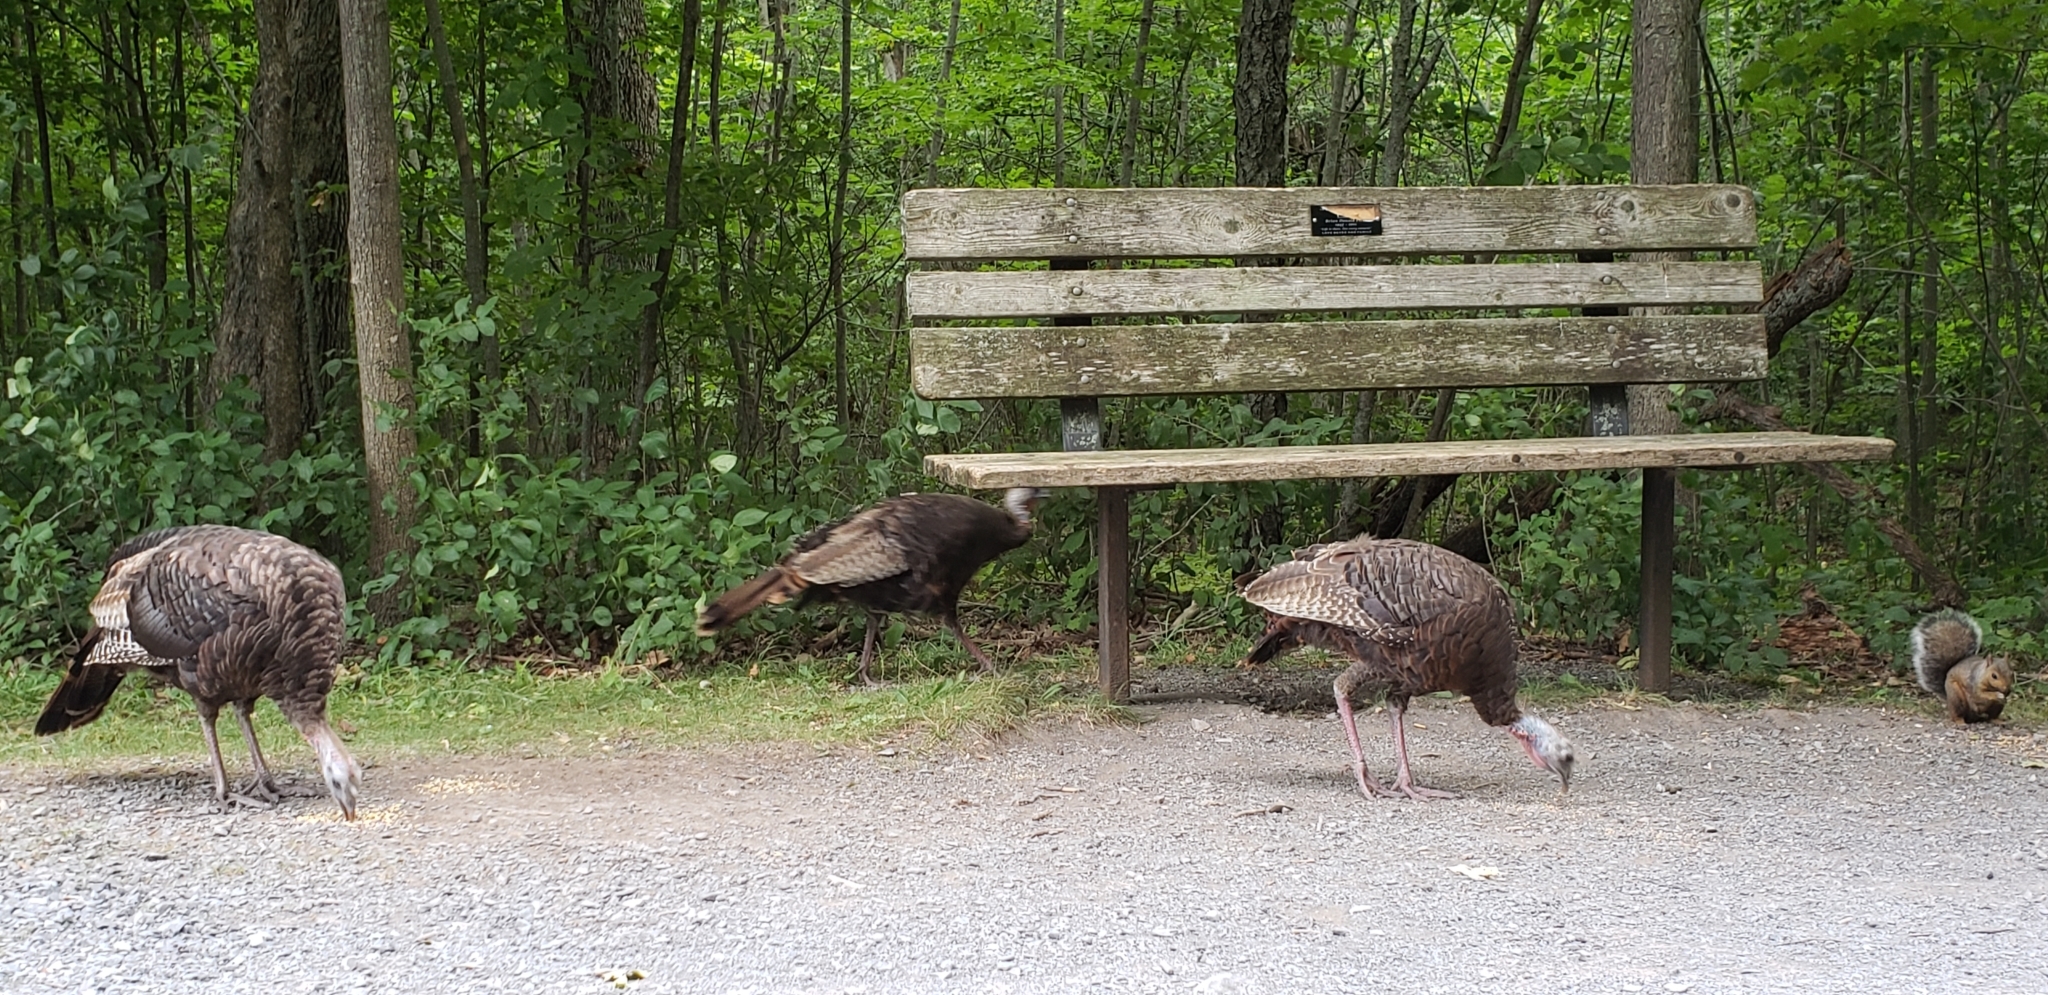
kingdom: Animalia
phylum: Chordata
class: Aves
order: Galliformes
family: Phasianidae
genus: Meleagris
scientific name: Meleagris gallopavo
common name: Wild turkey
